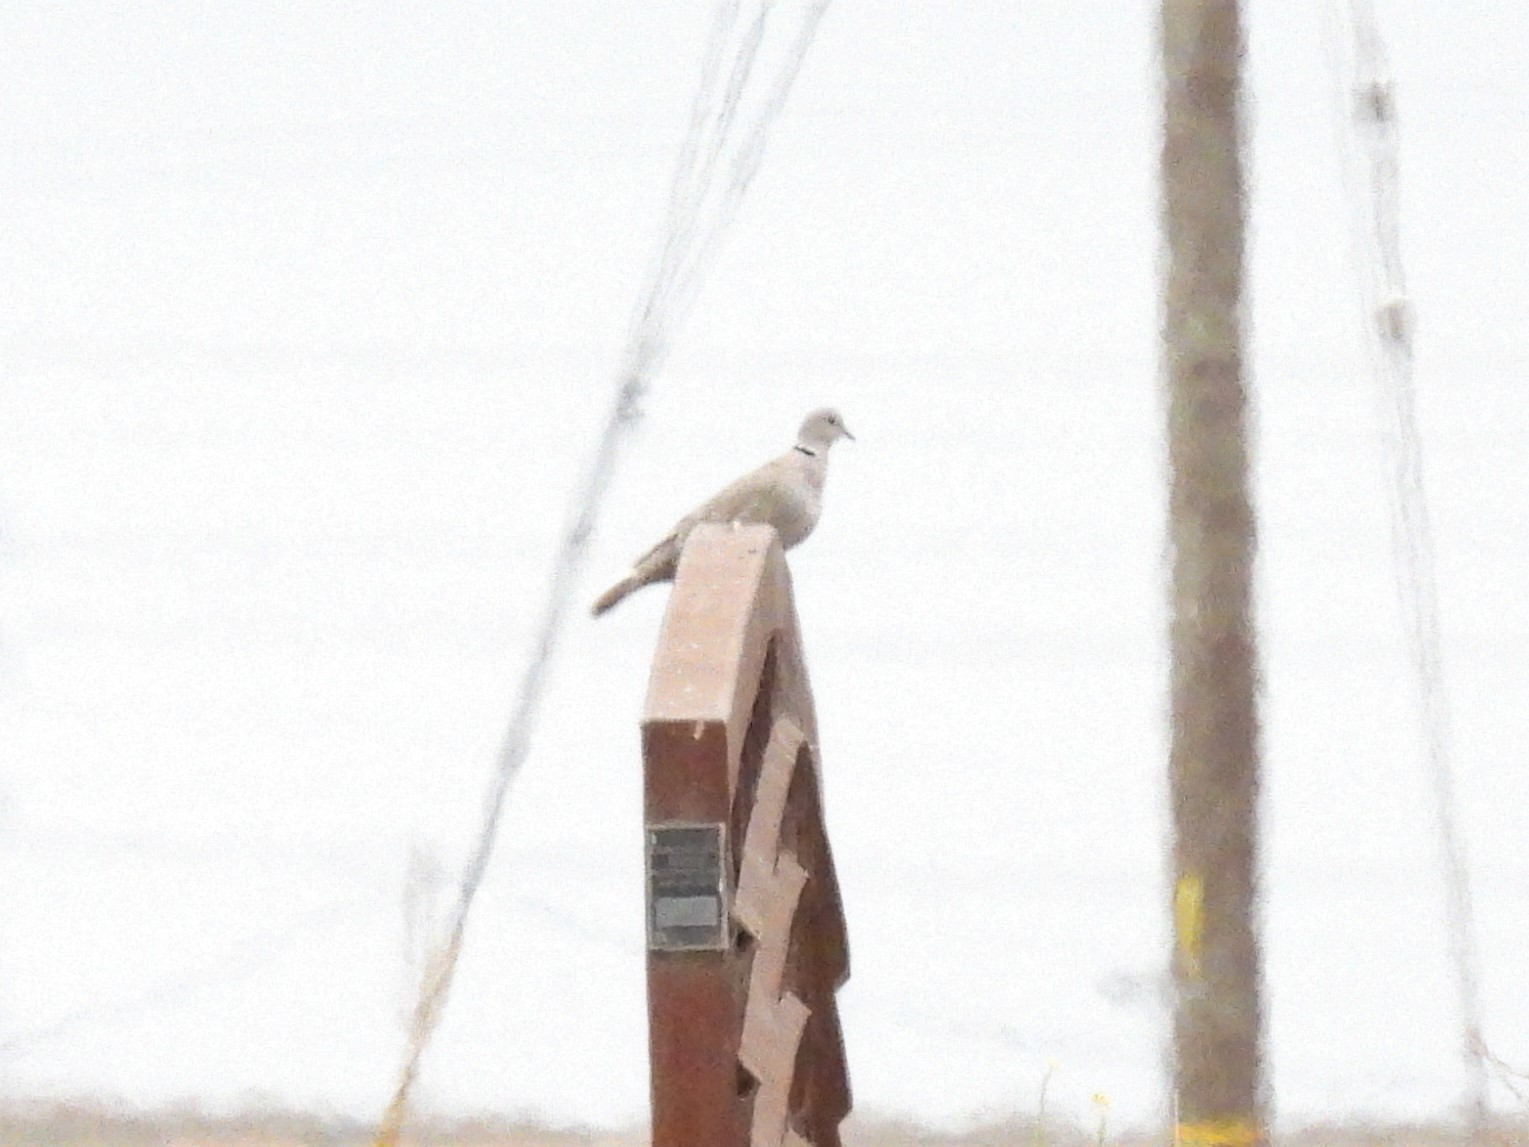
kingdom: Animalia
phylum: Chordata
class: Aves
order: Columbiformes
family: Columbidae
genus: Streptopelia
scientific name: Streptopelia decaocto
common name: Eurasian collared dove
